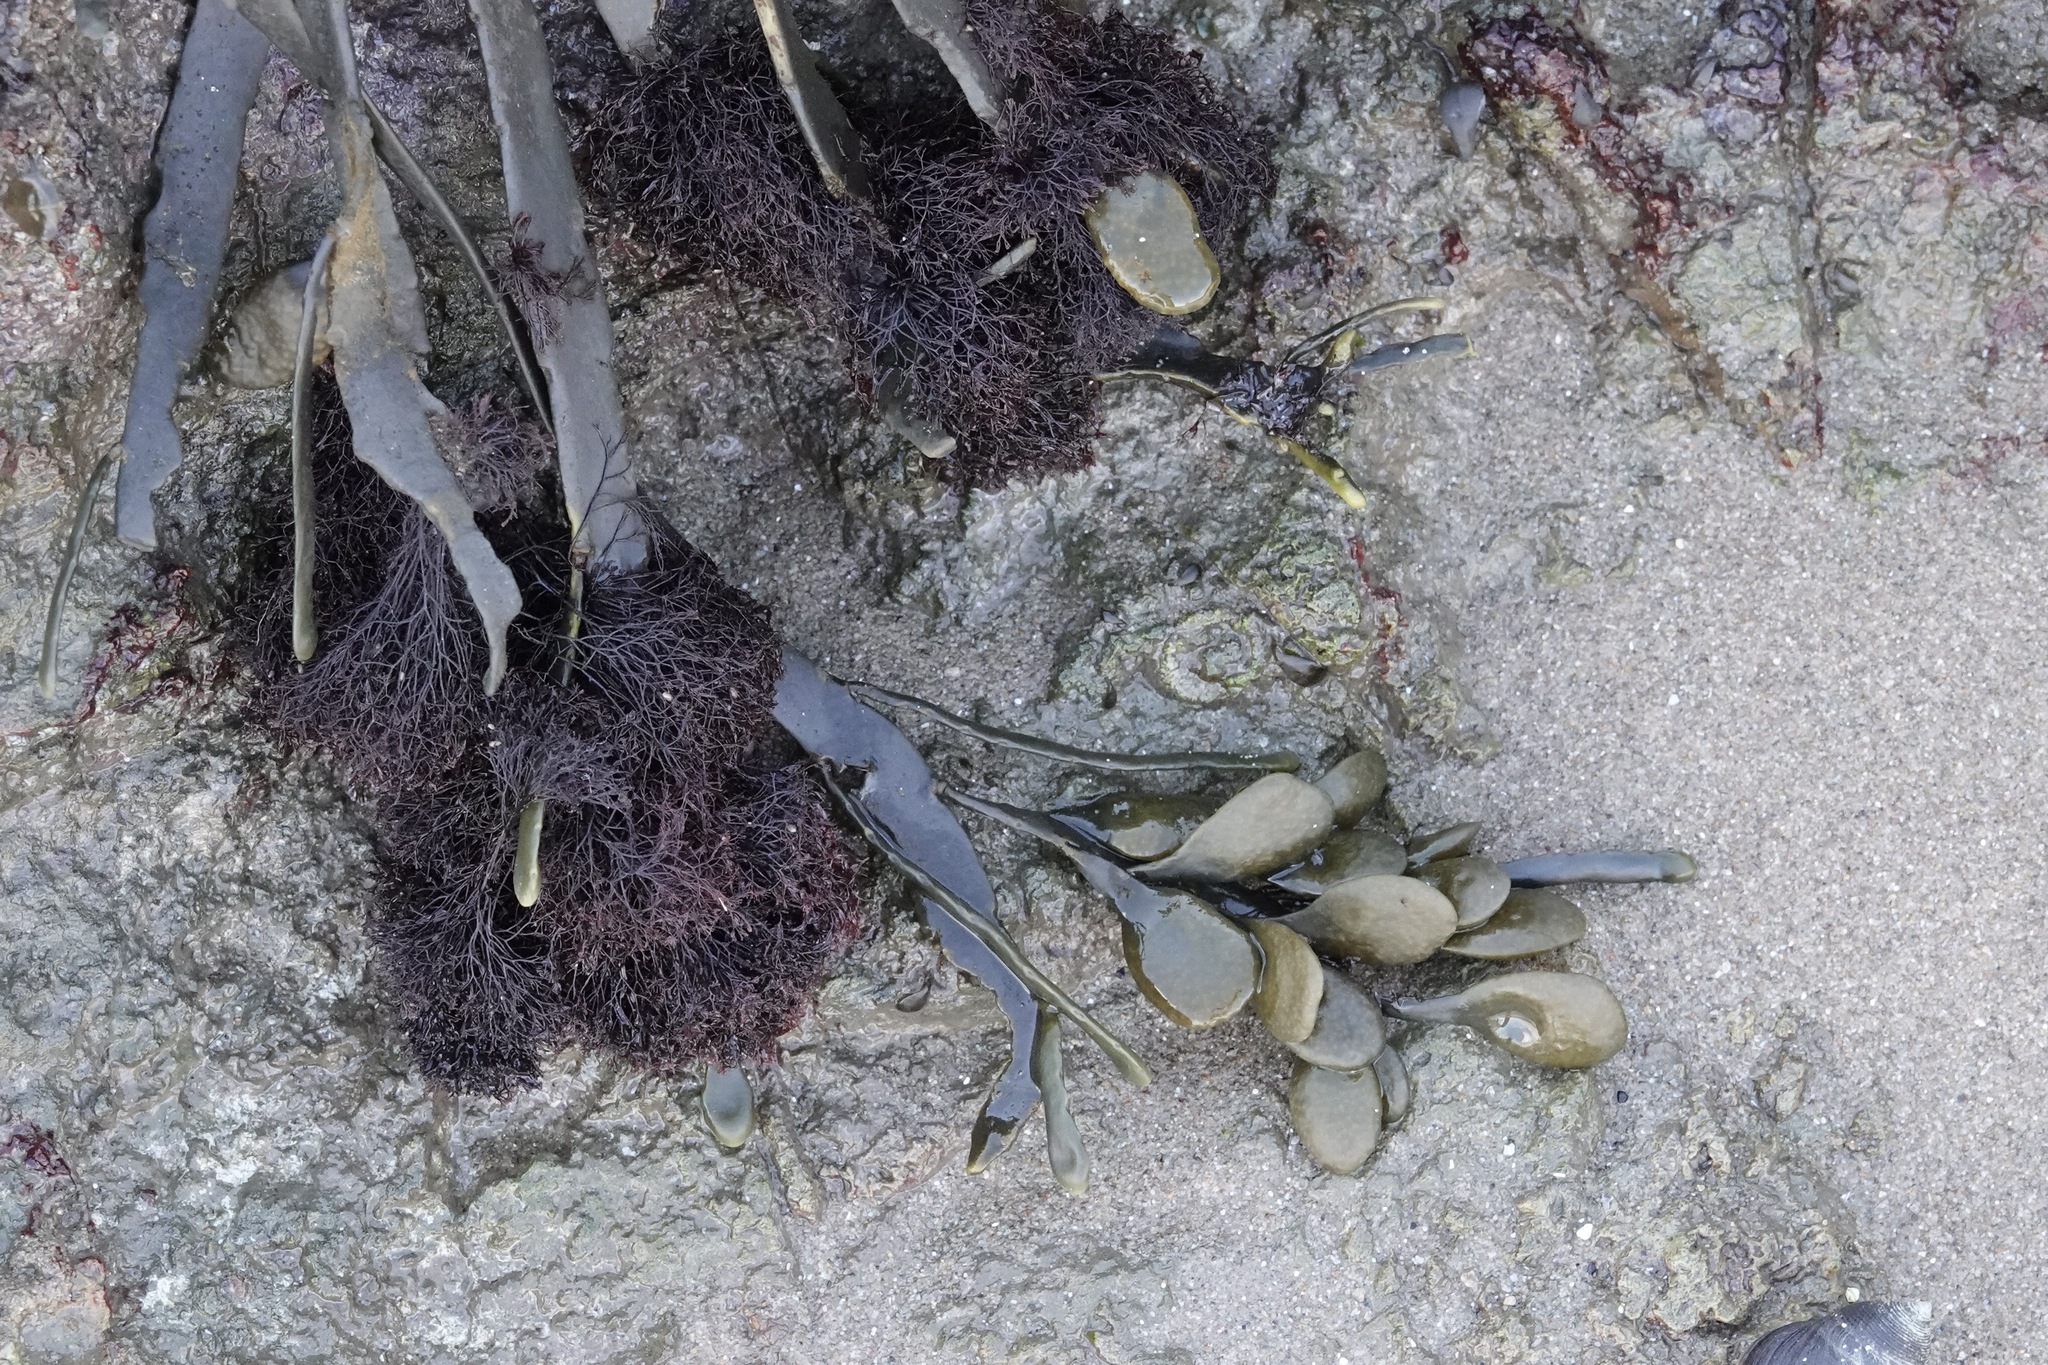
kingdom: Plantae
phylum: Rhodophyta
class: Florideophyceae
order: Ceramiales
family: Rhodomelaceae
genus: Vertebrata
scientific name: Vertebrata lanosa
